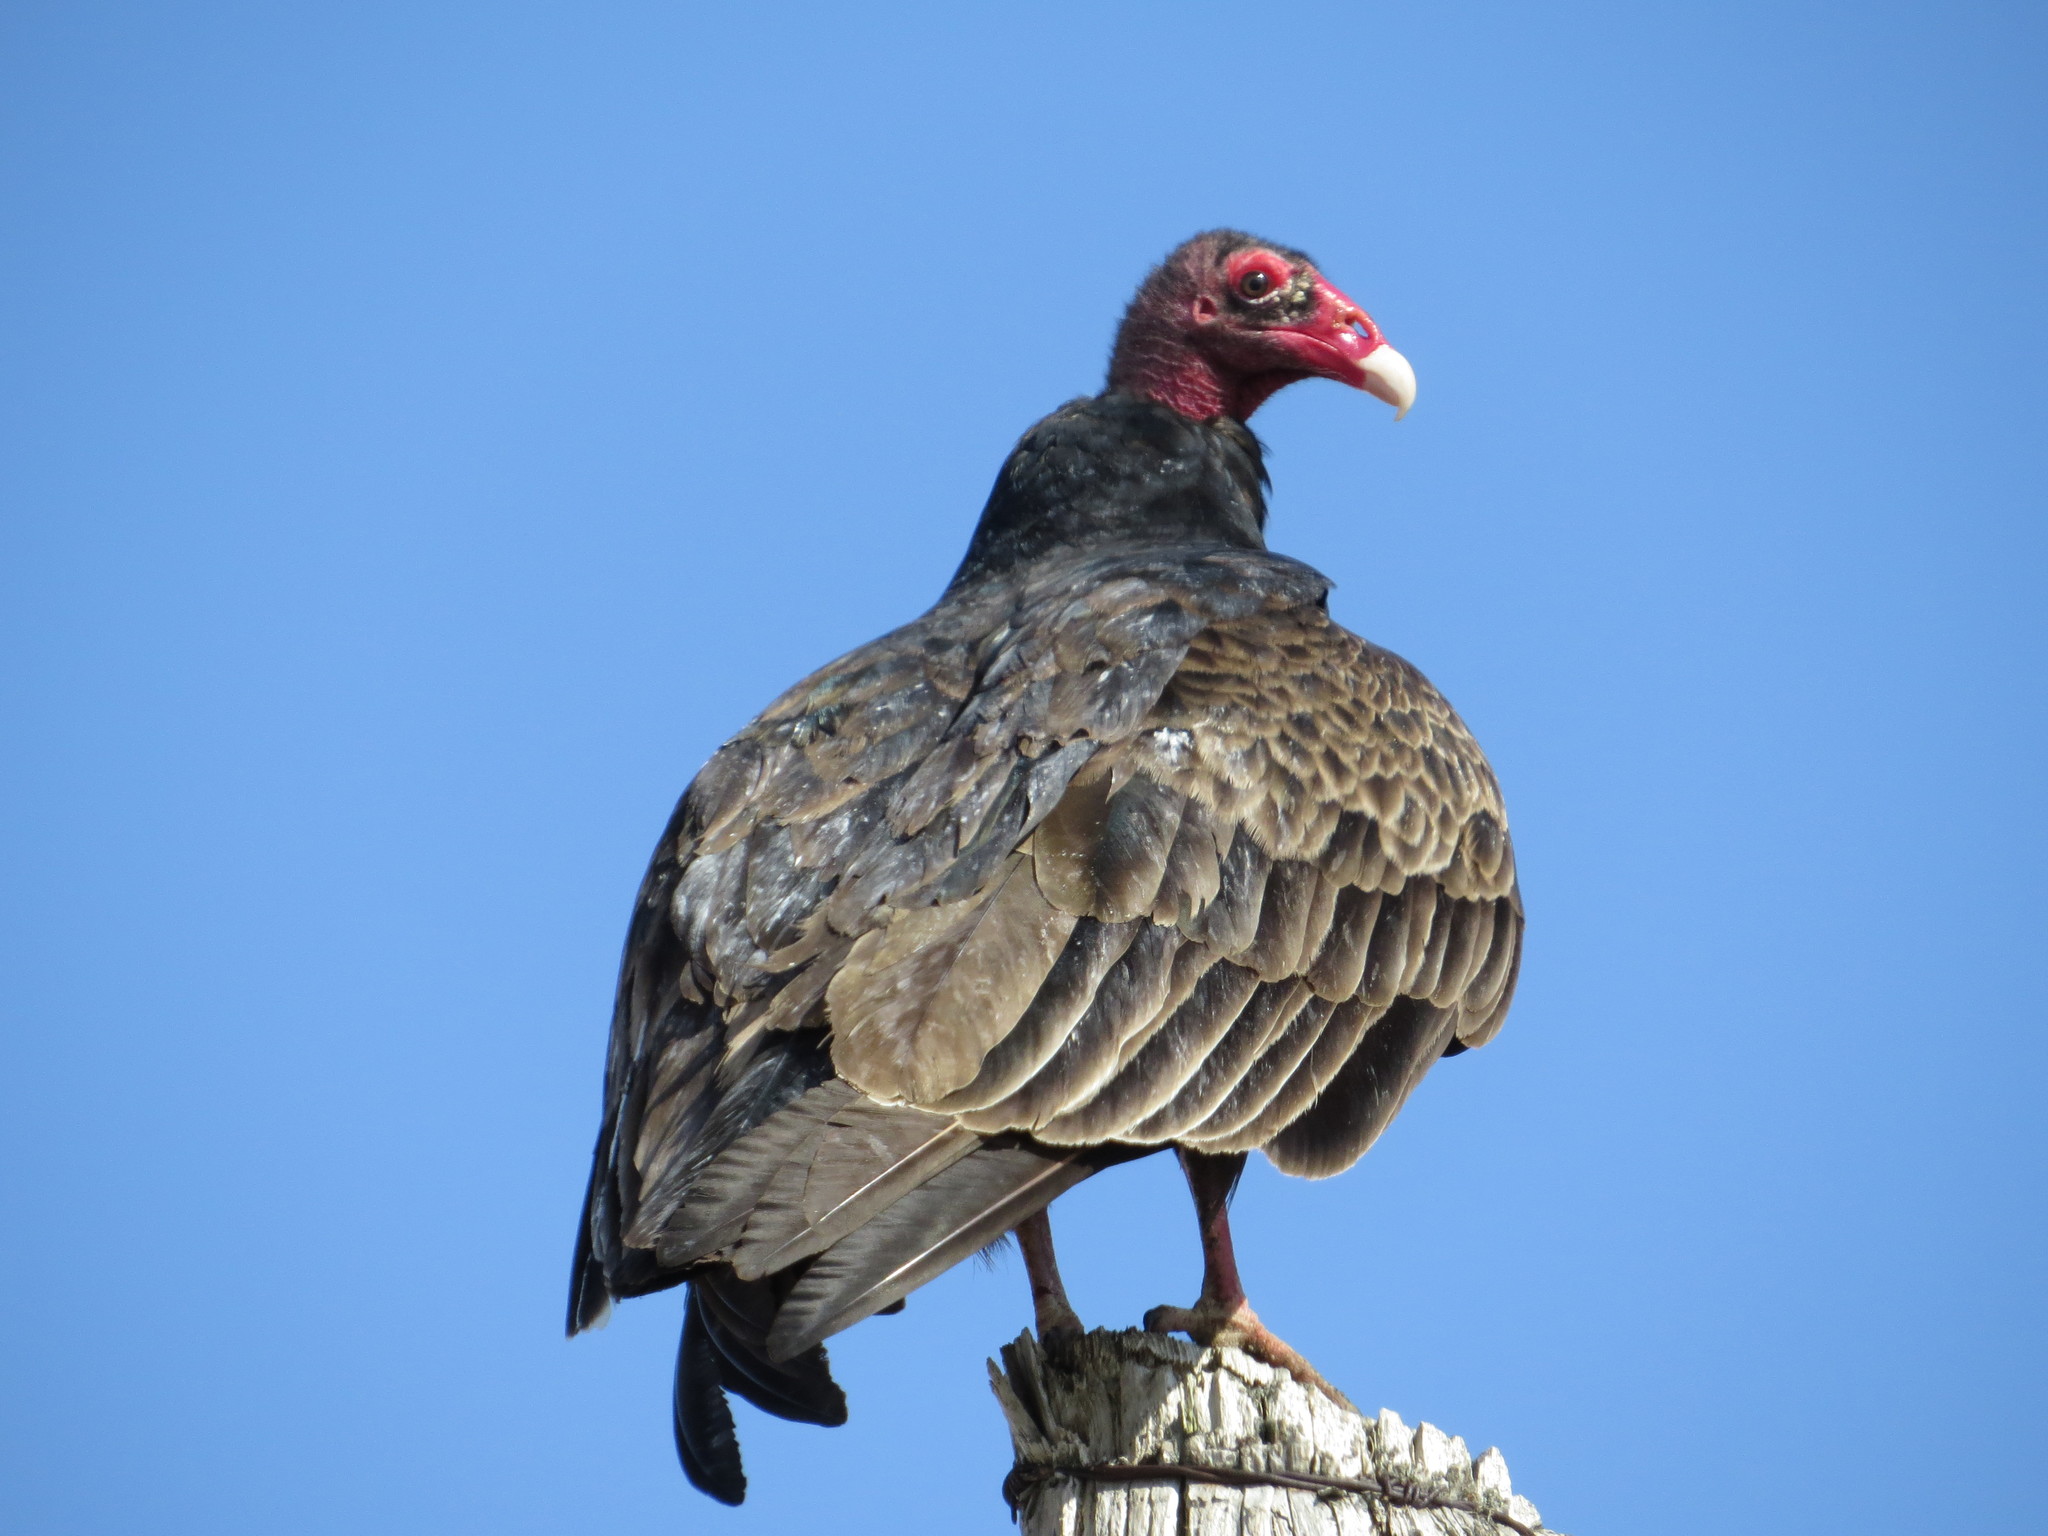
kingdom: Animalia
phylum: Chordata
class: Aves
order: Accipitriformes
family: Cathartidae
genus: Cathartes
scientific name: Cathartes aura
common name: Turkey vulture
